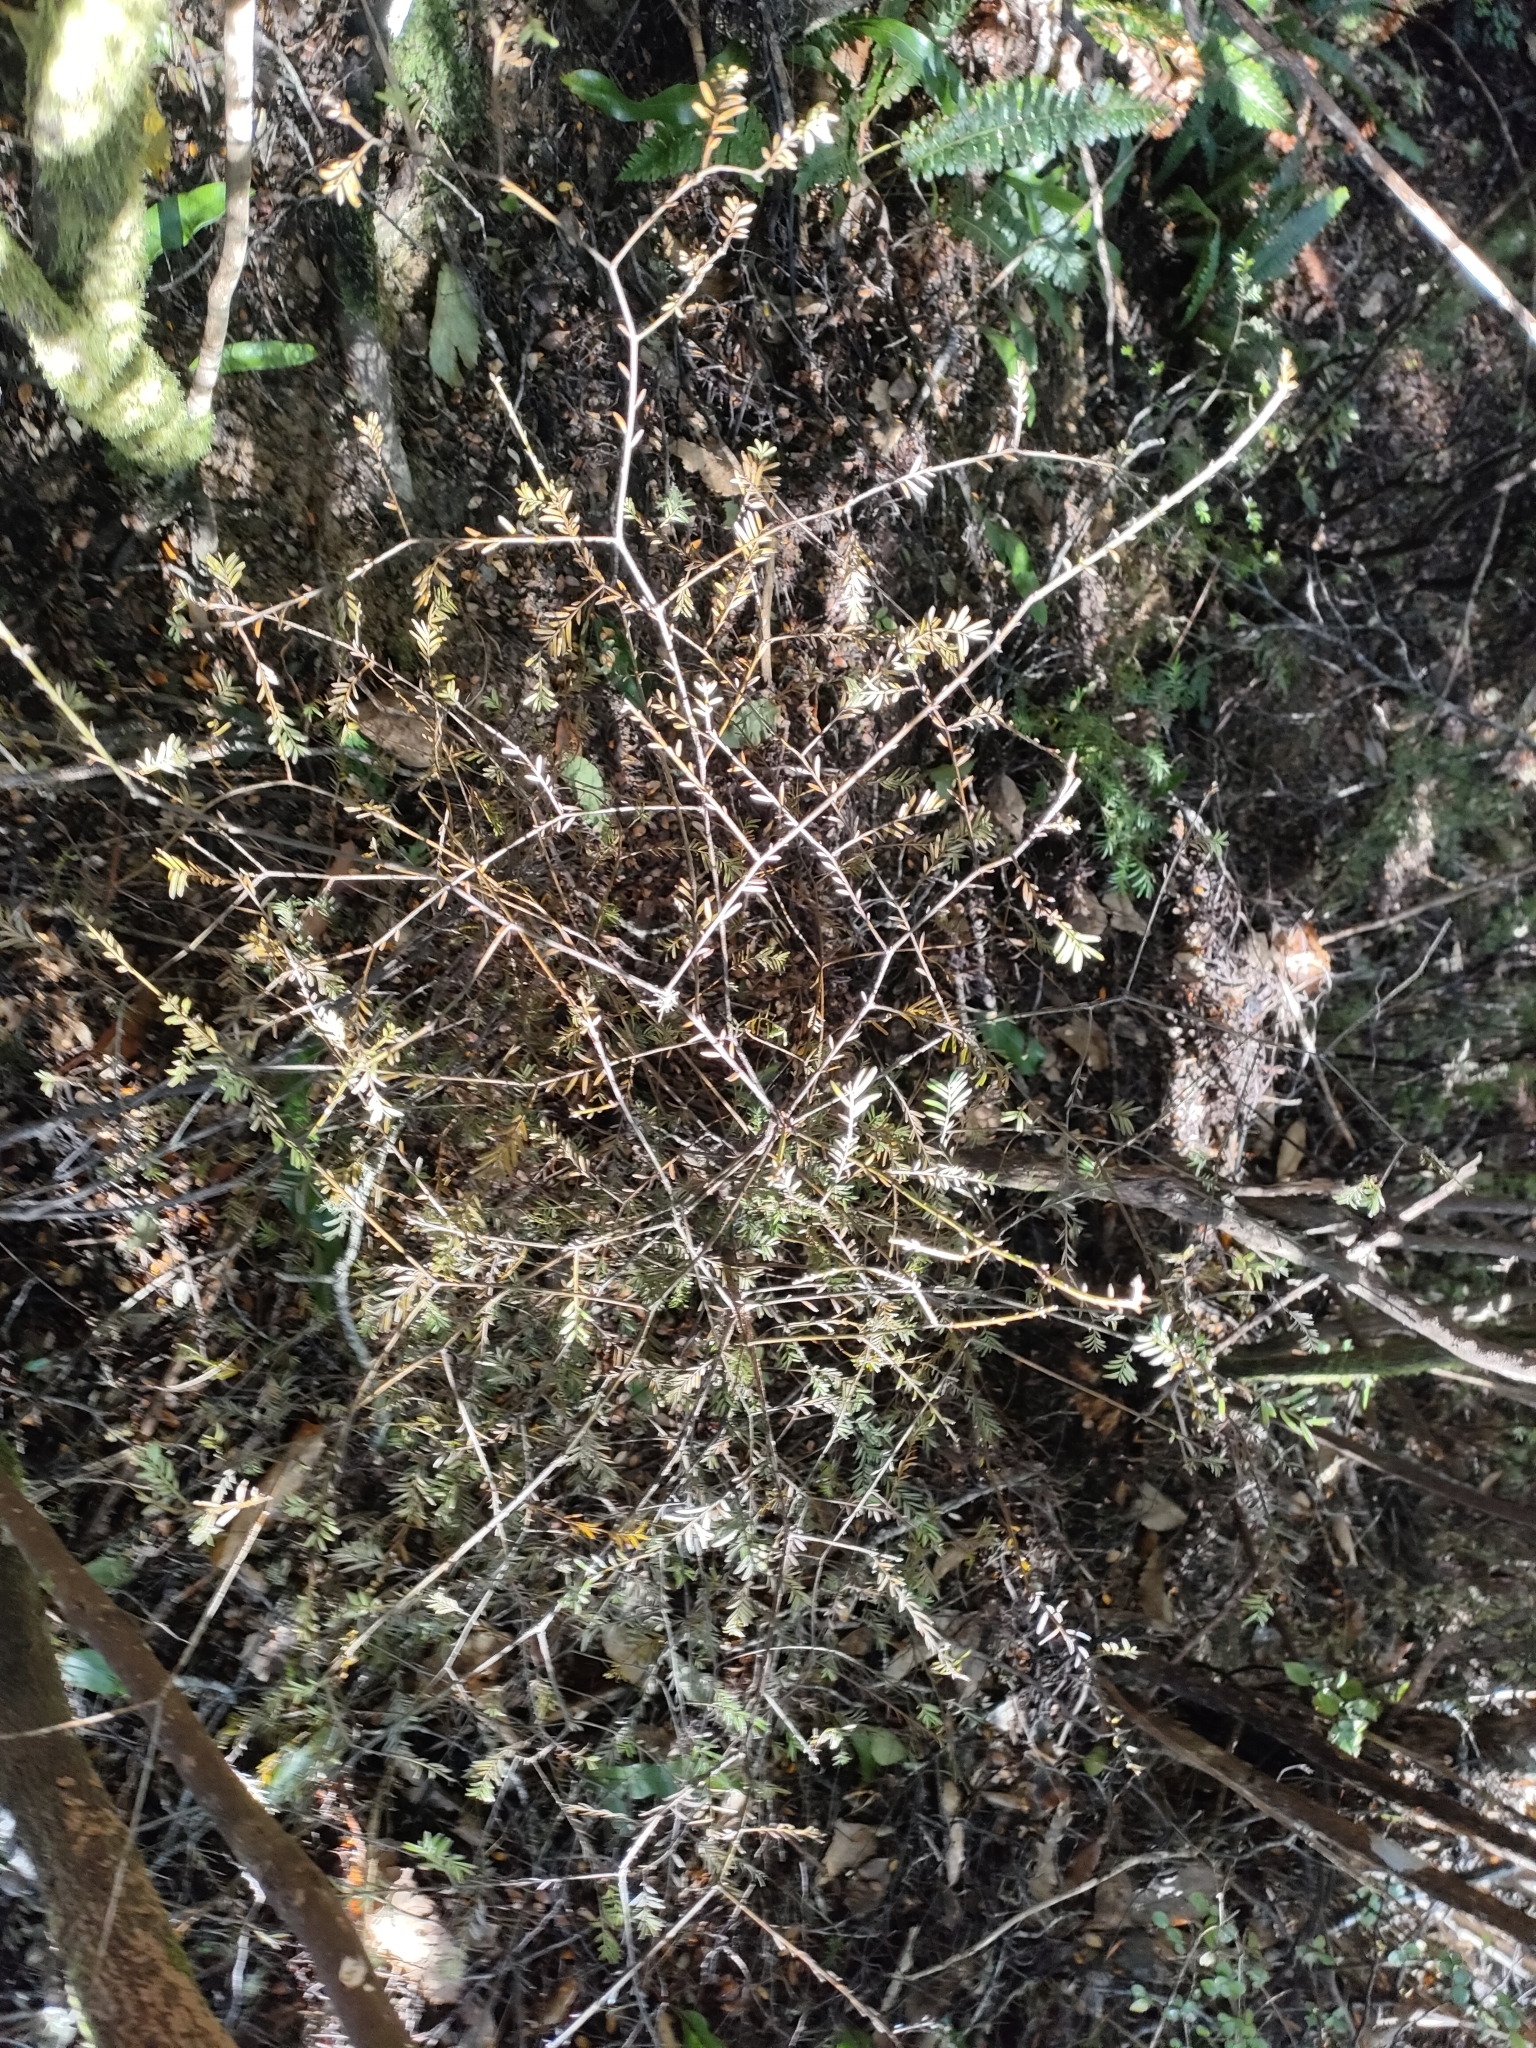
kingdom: Plantae
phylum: Tracheophyta
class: Pinopsida
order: Pinales
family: Podocarpaceae
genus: Prumnopitys
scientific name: Prumnopitys taxifolia
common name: Matai
